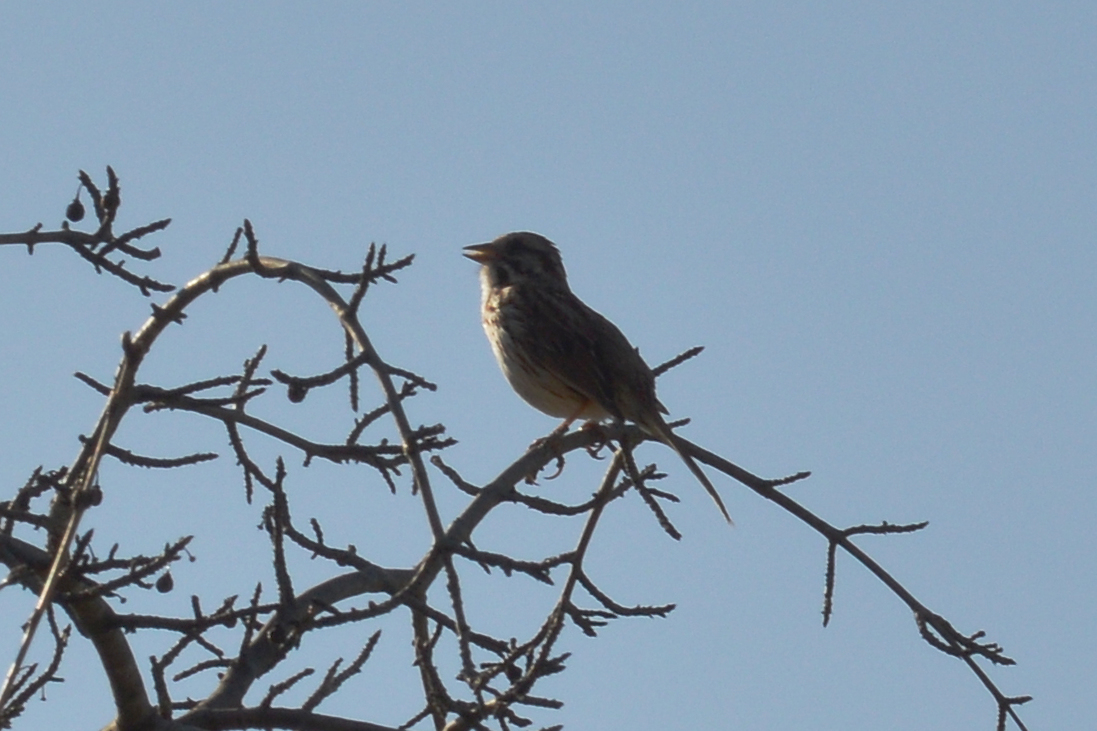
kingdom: Animalia
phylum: Chordata
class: Aves
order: Passeriformes
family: Passerellidae
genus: Melospiza
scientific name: Melospiza melodia
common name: Song sparrow
